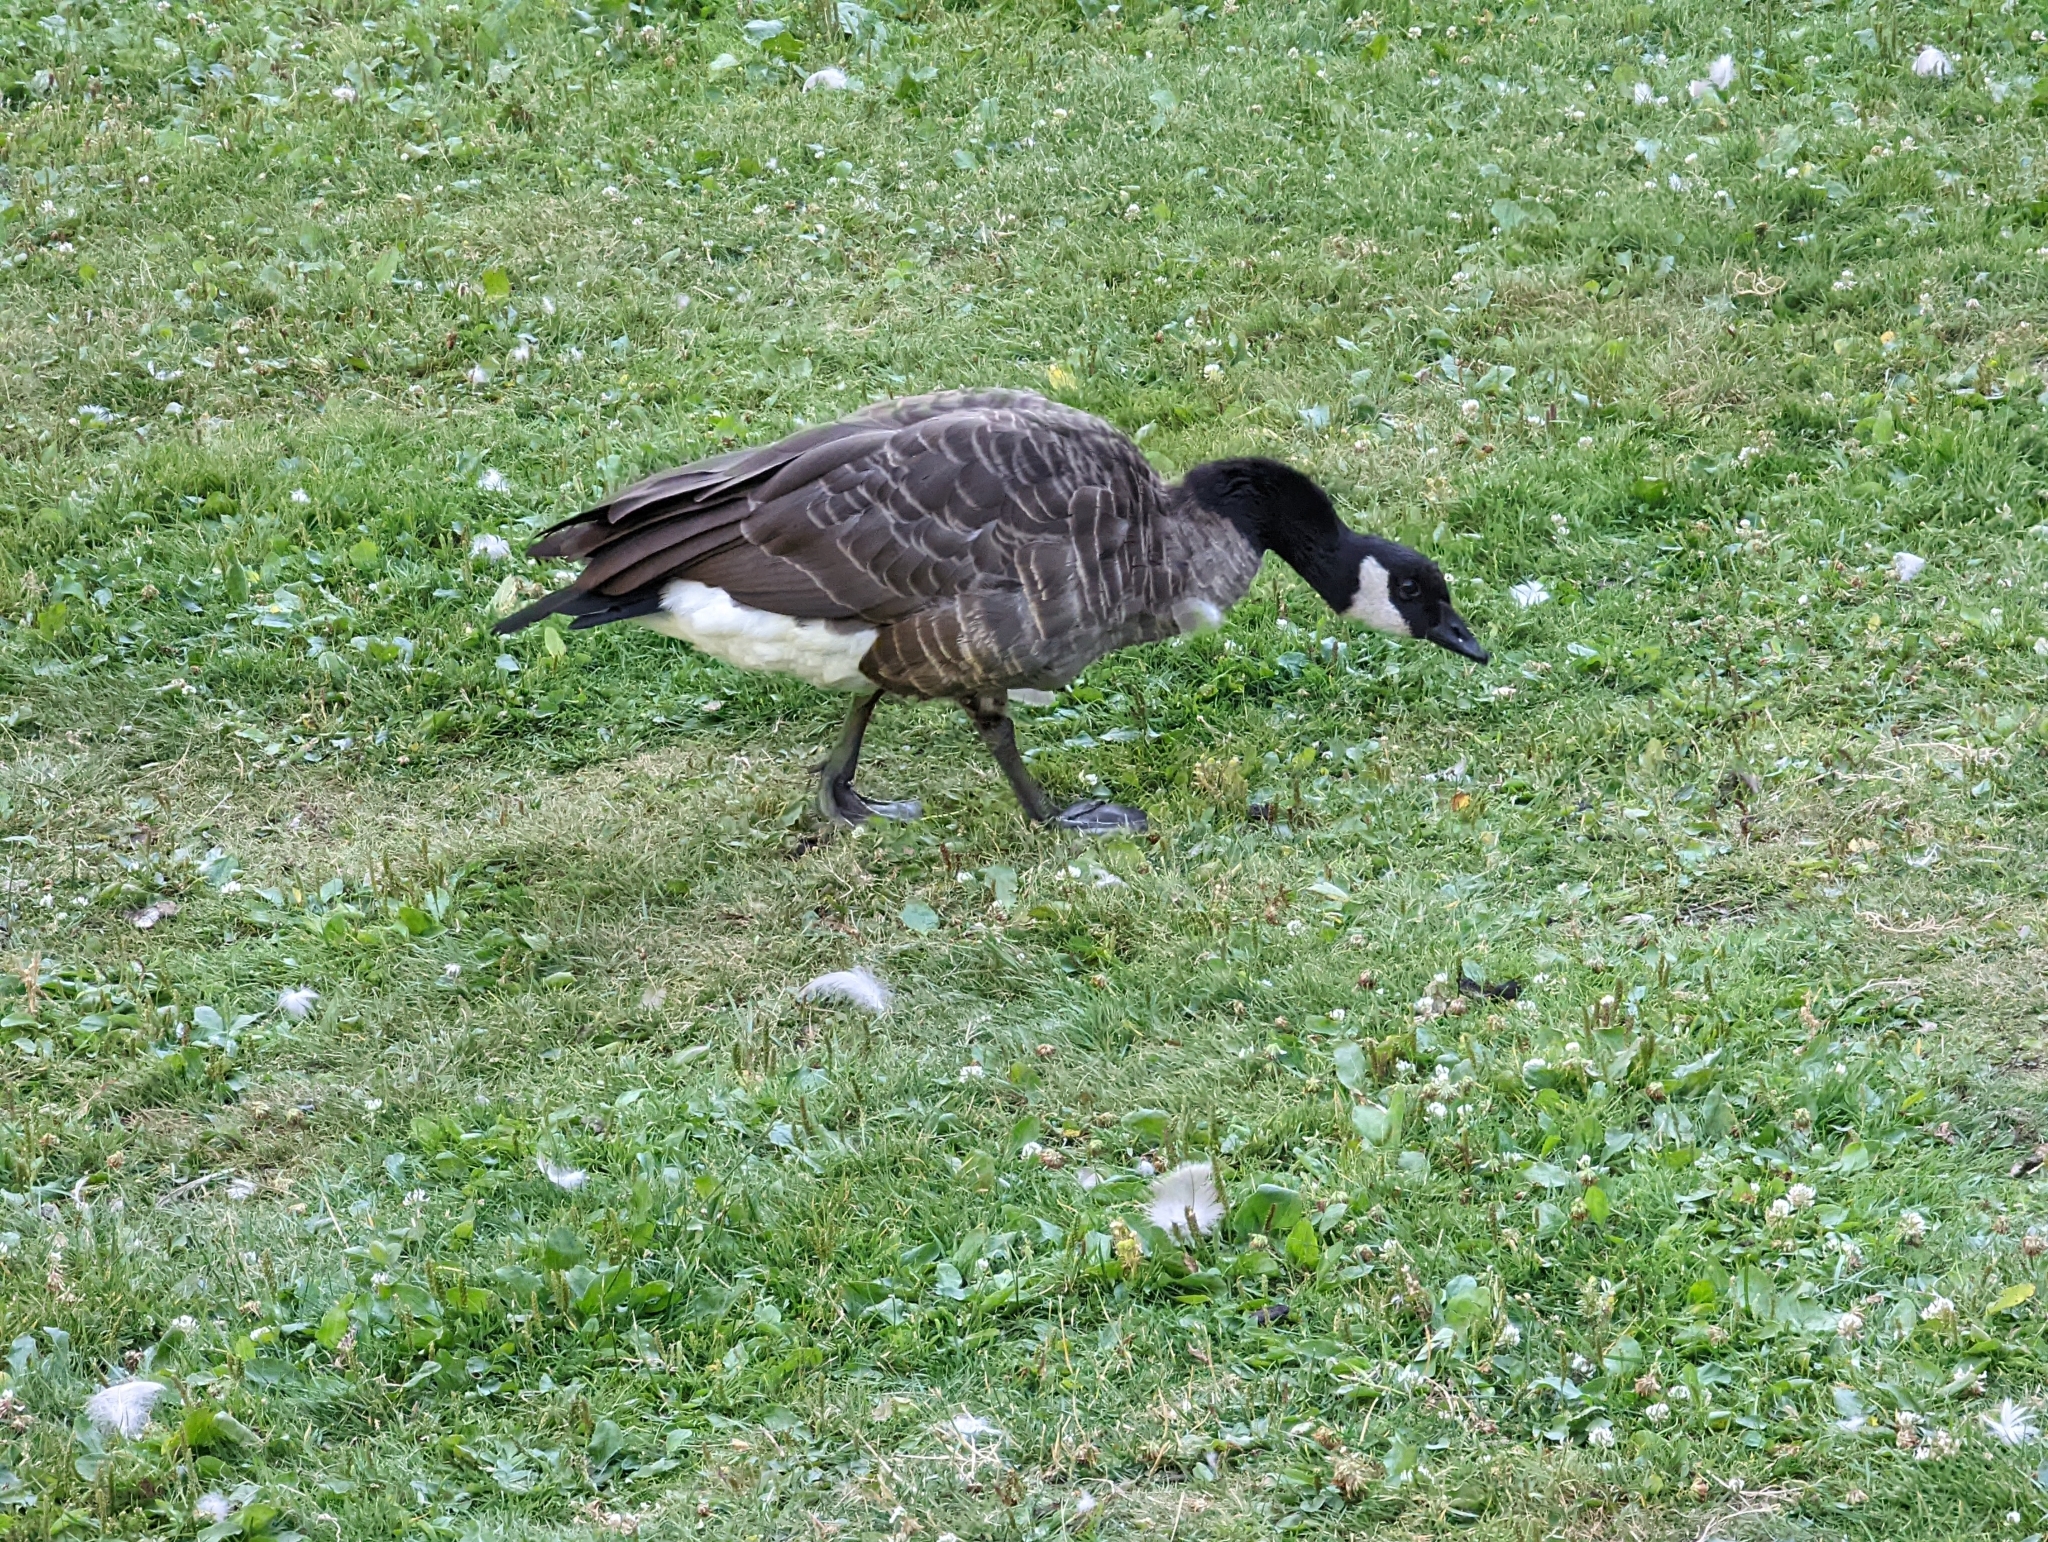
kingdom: Animalia
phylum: Chordata
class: Aves
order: Anseriformes
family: Anatidae
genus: Branta
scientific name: Branta canadensis
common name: Canada goose
